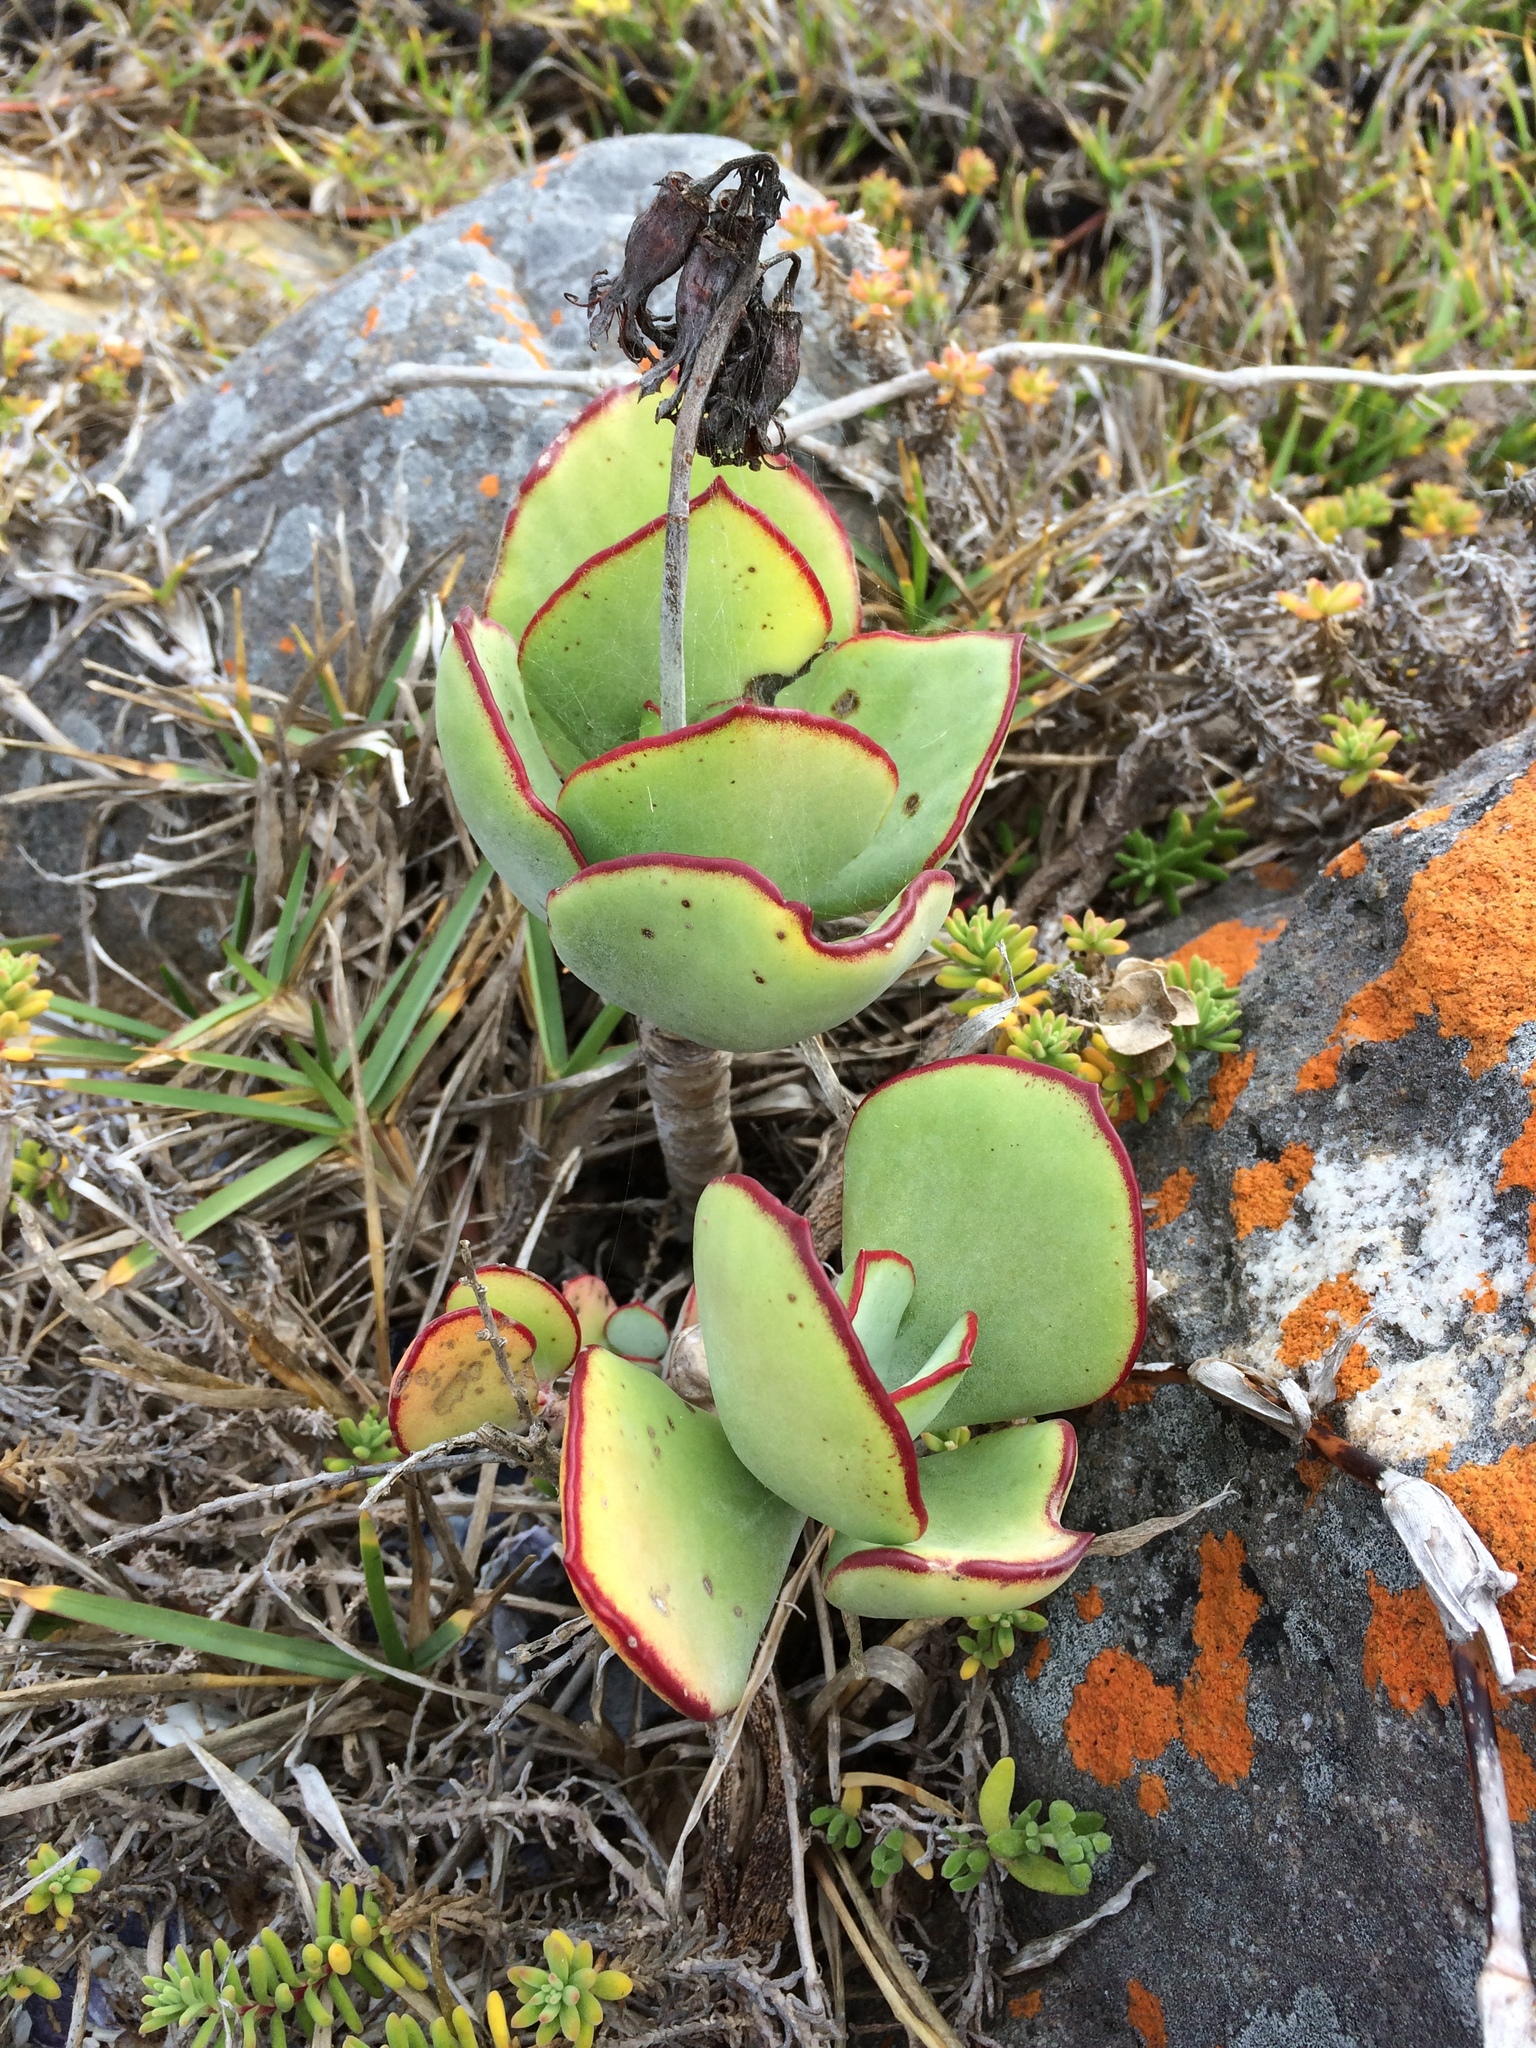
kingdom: Plantae
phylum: Tracheophyta
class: Magnoliopsida
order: Saxifragales
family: Crassulaceae
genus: Cotyledon
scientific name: Cotyledon orbiculata
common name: Pig's ear
